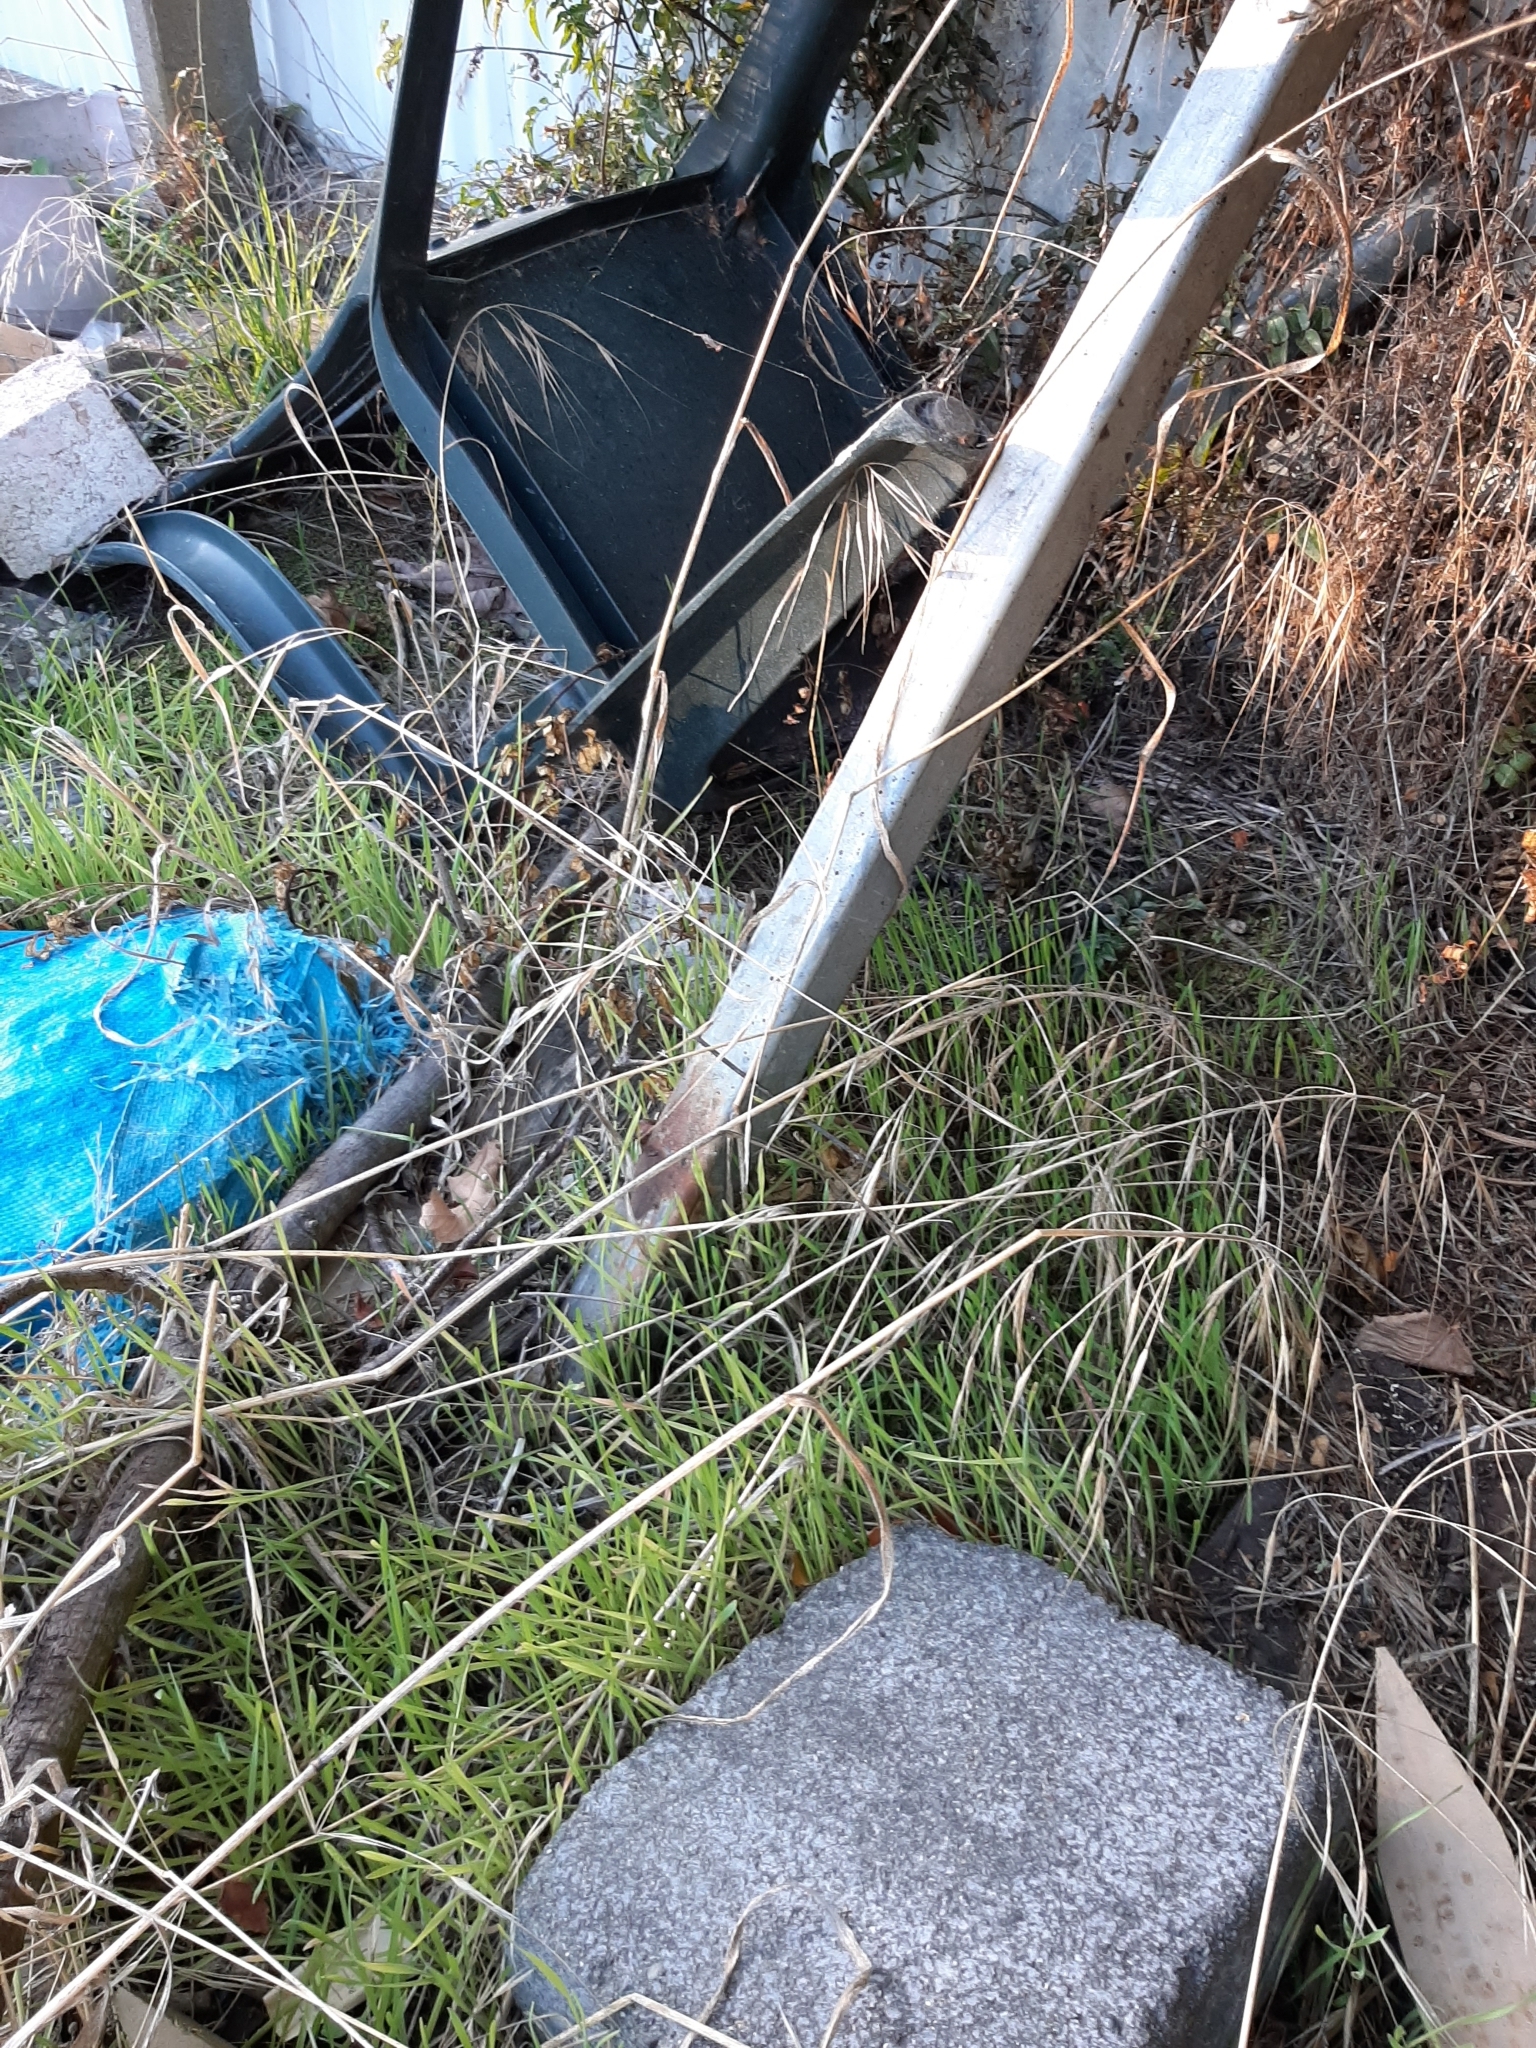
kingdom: Plantae
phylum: Tracheophyta
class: Liliopsida
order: Poales
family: Poaceae
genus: Bromus
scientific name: Bromus diandrus
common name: Ripgut brome
